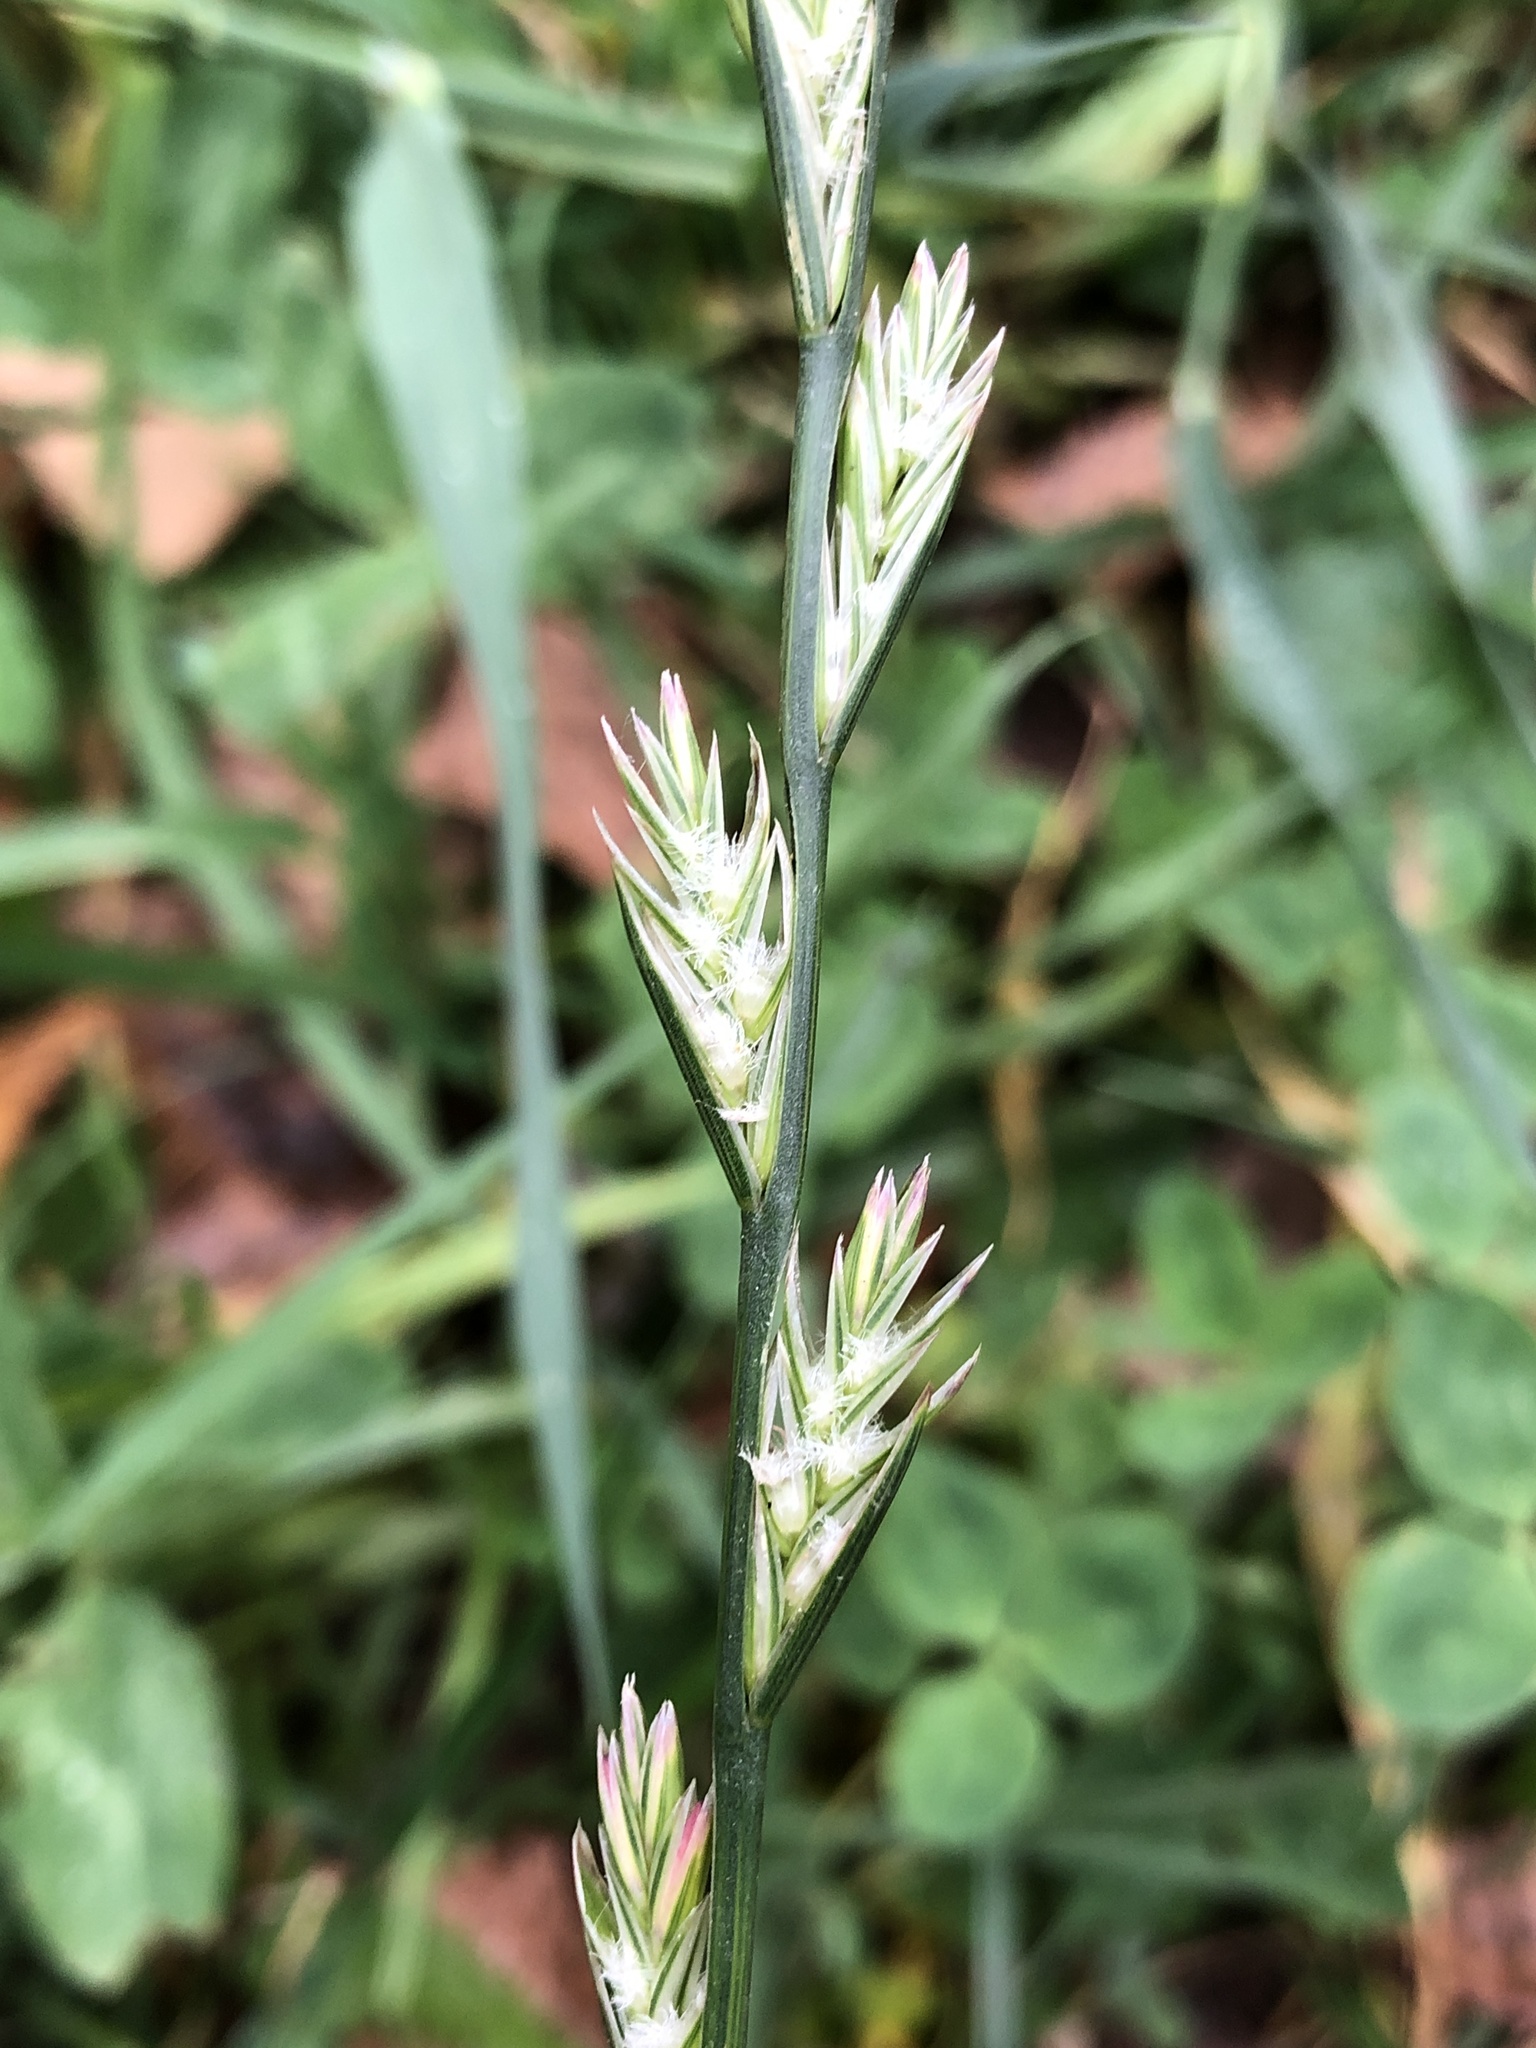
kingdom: Plantae
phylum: Tracheophyta
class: Liliopsida
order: Poales
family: Poaceae
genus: Lolium
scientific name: Lolium perenne
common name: Perennial ryegrass
